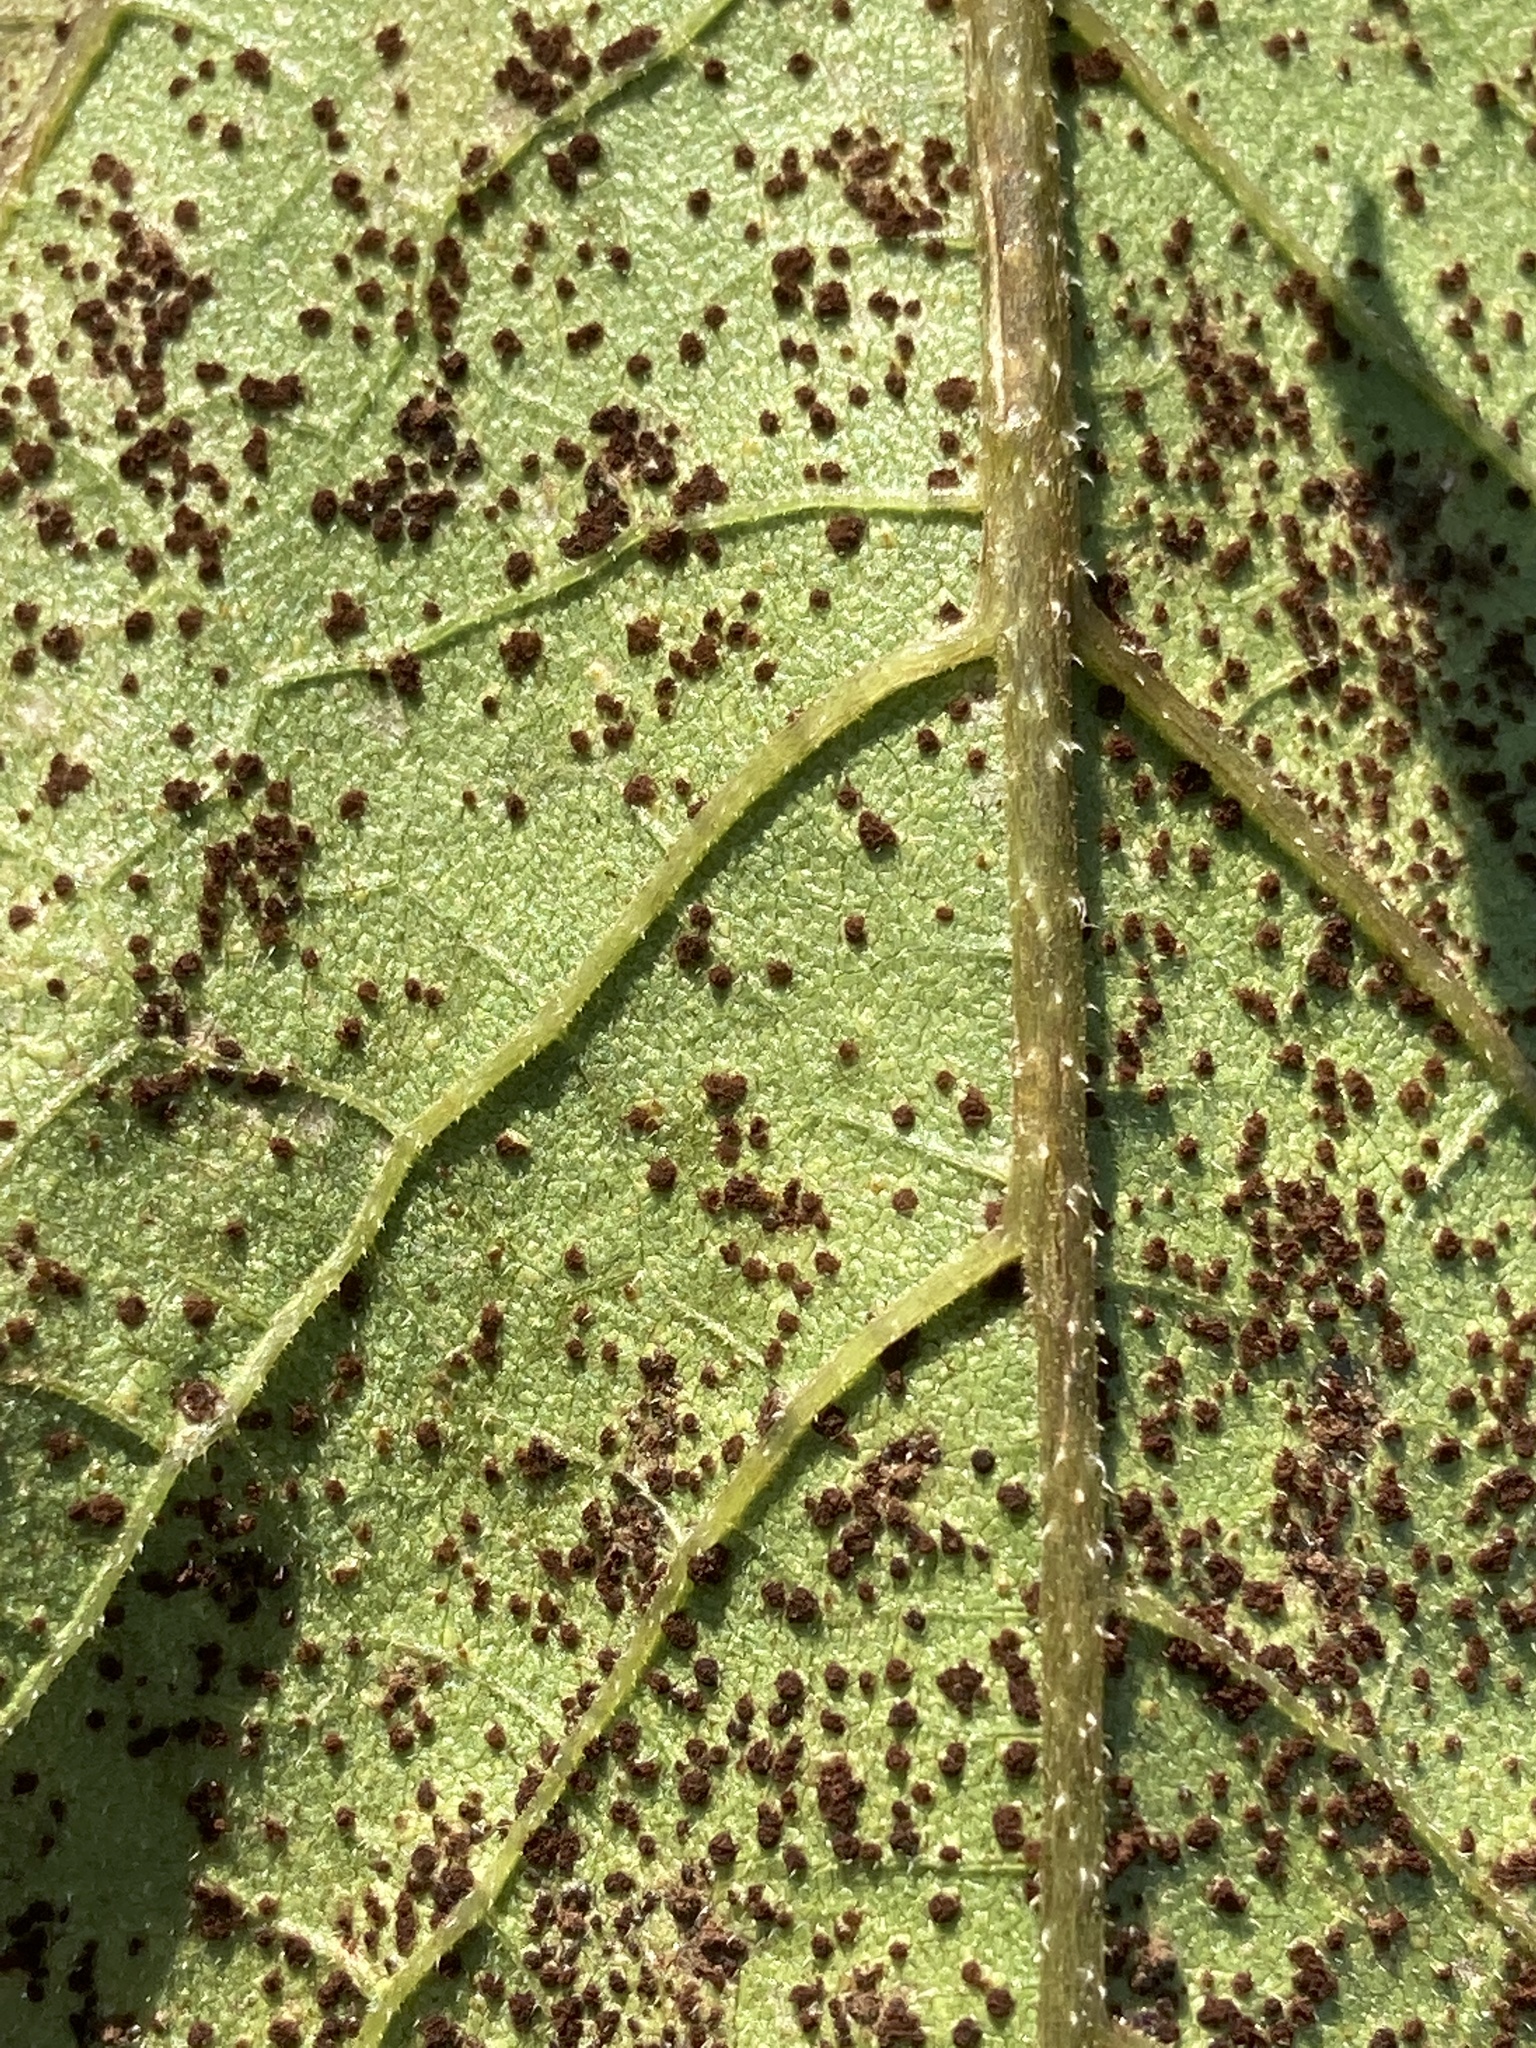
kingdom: Fungi
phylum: Basidiomycota
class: Pucciniomycetes
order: Pucciniales
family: Pucciniaceae
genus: Puccinia
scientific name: Puccinia helianthi-mollis
